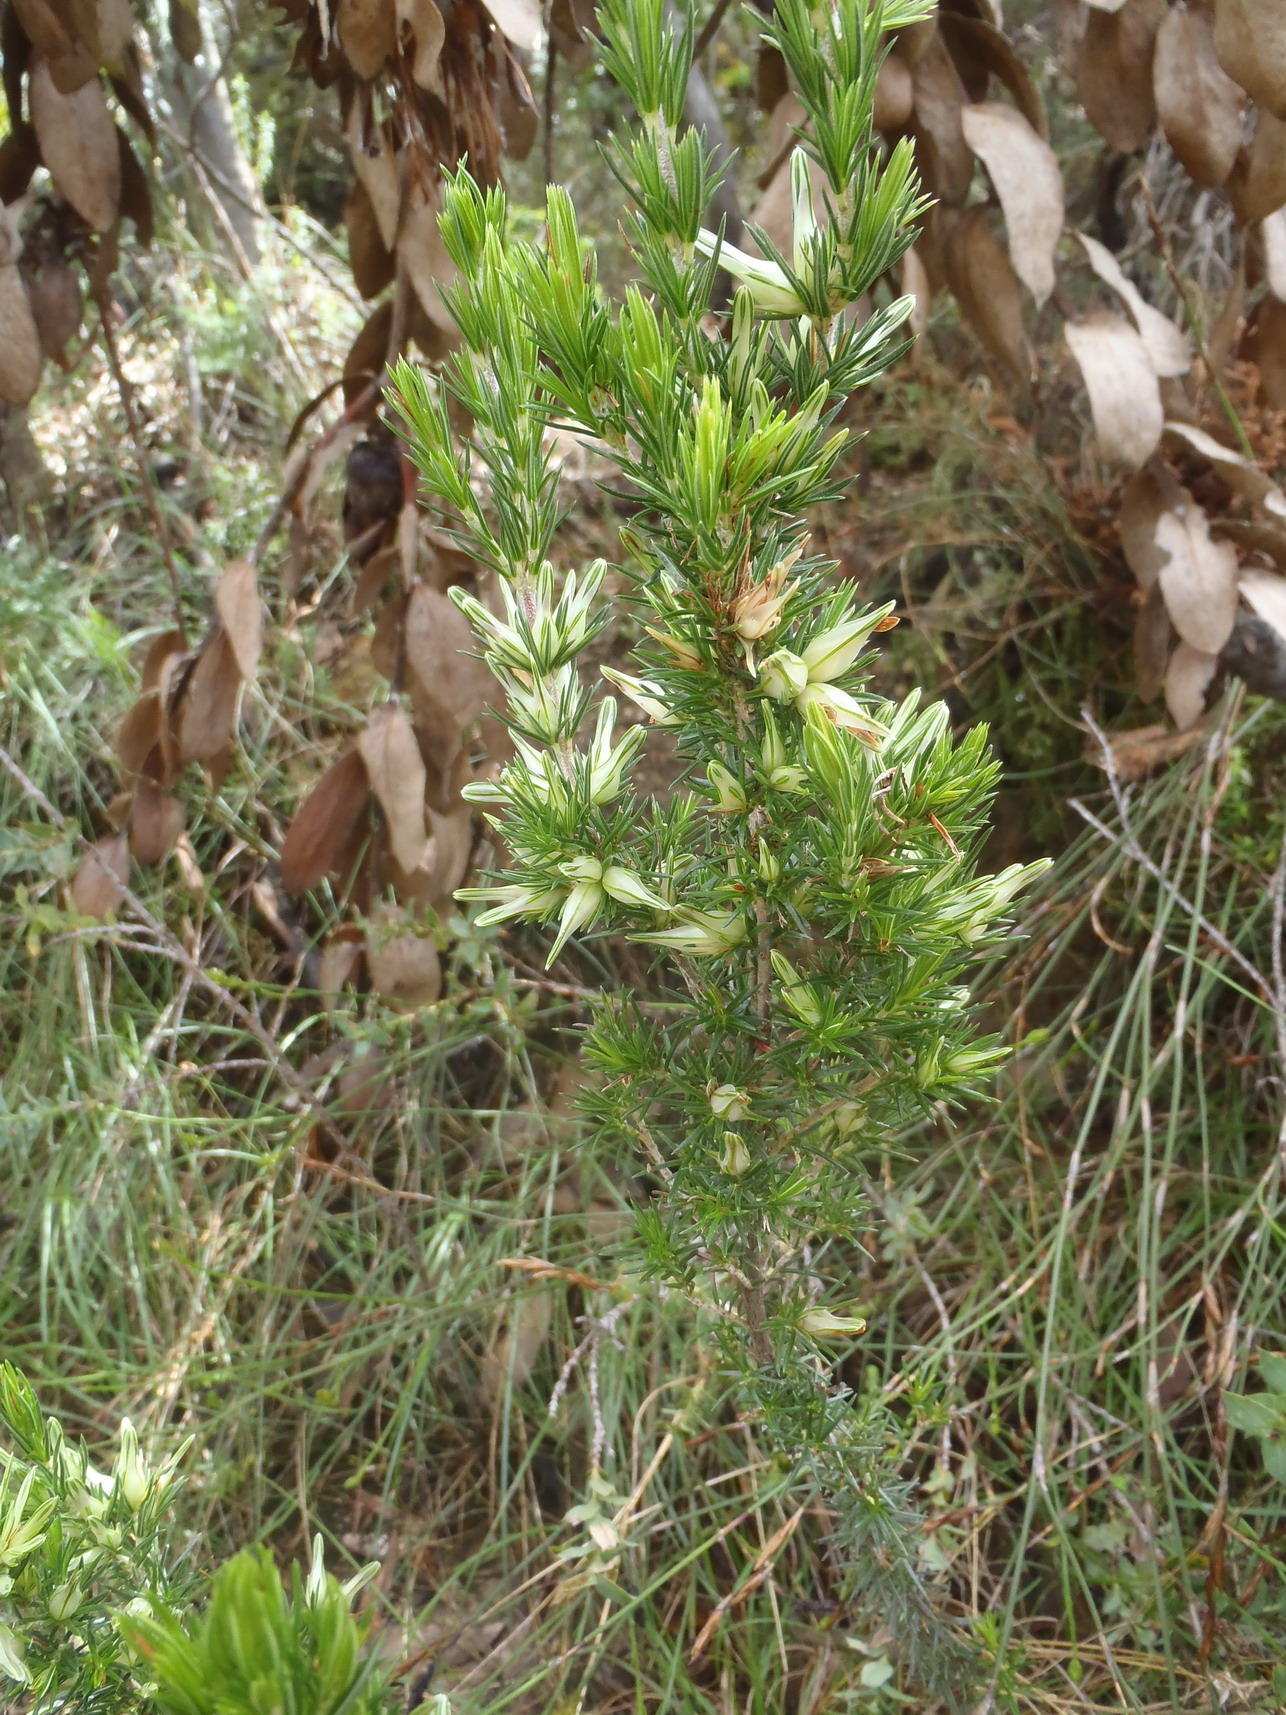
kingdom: Plantae
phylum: Tracheophyta
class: Magnoliopsida
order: Ericales
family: Ericaceae
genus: Erica
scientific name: Erica nabea
